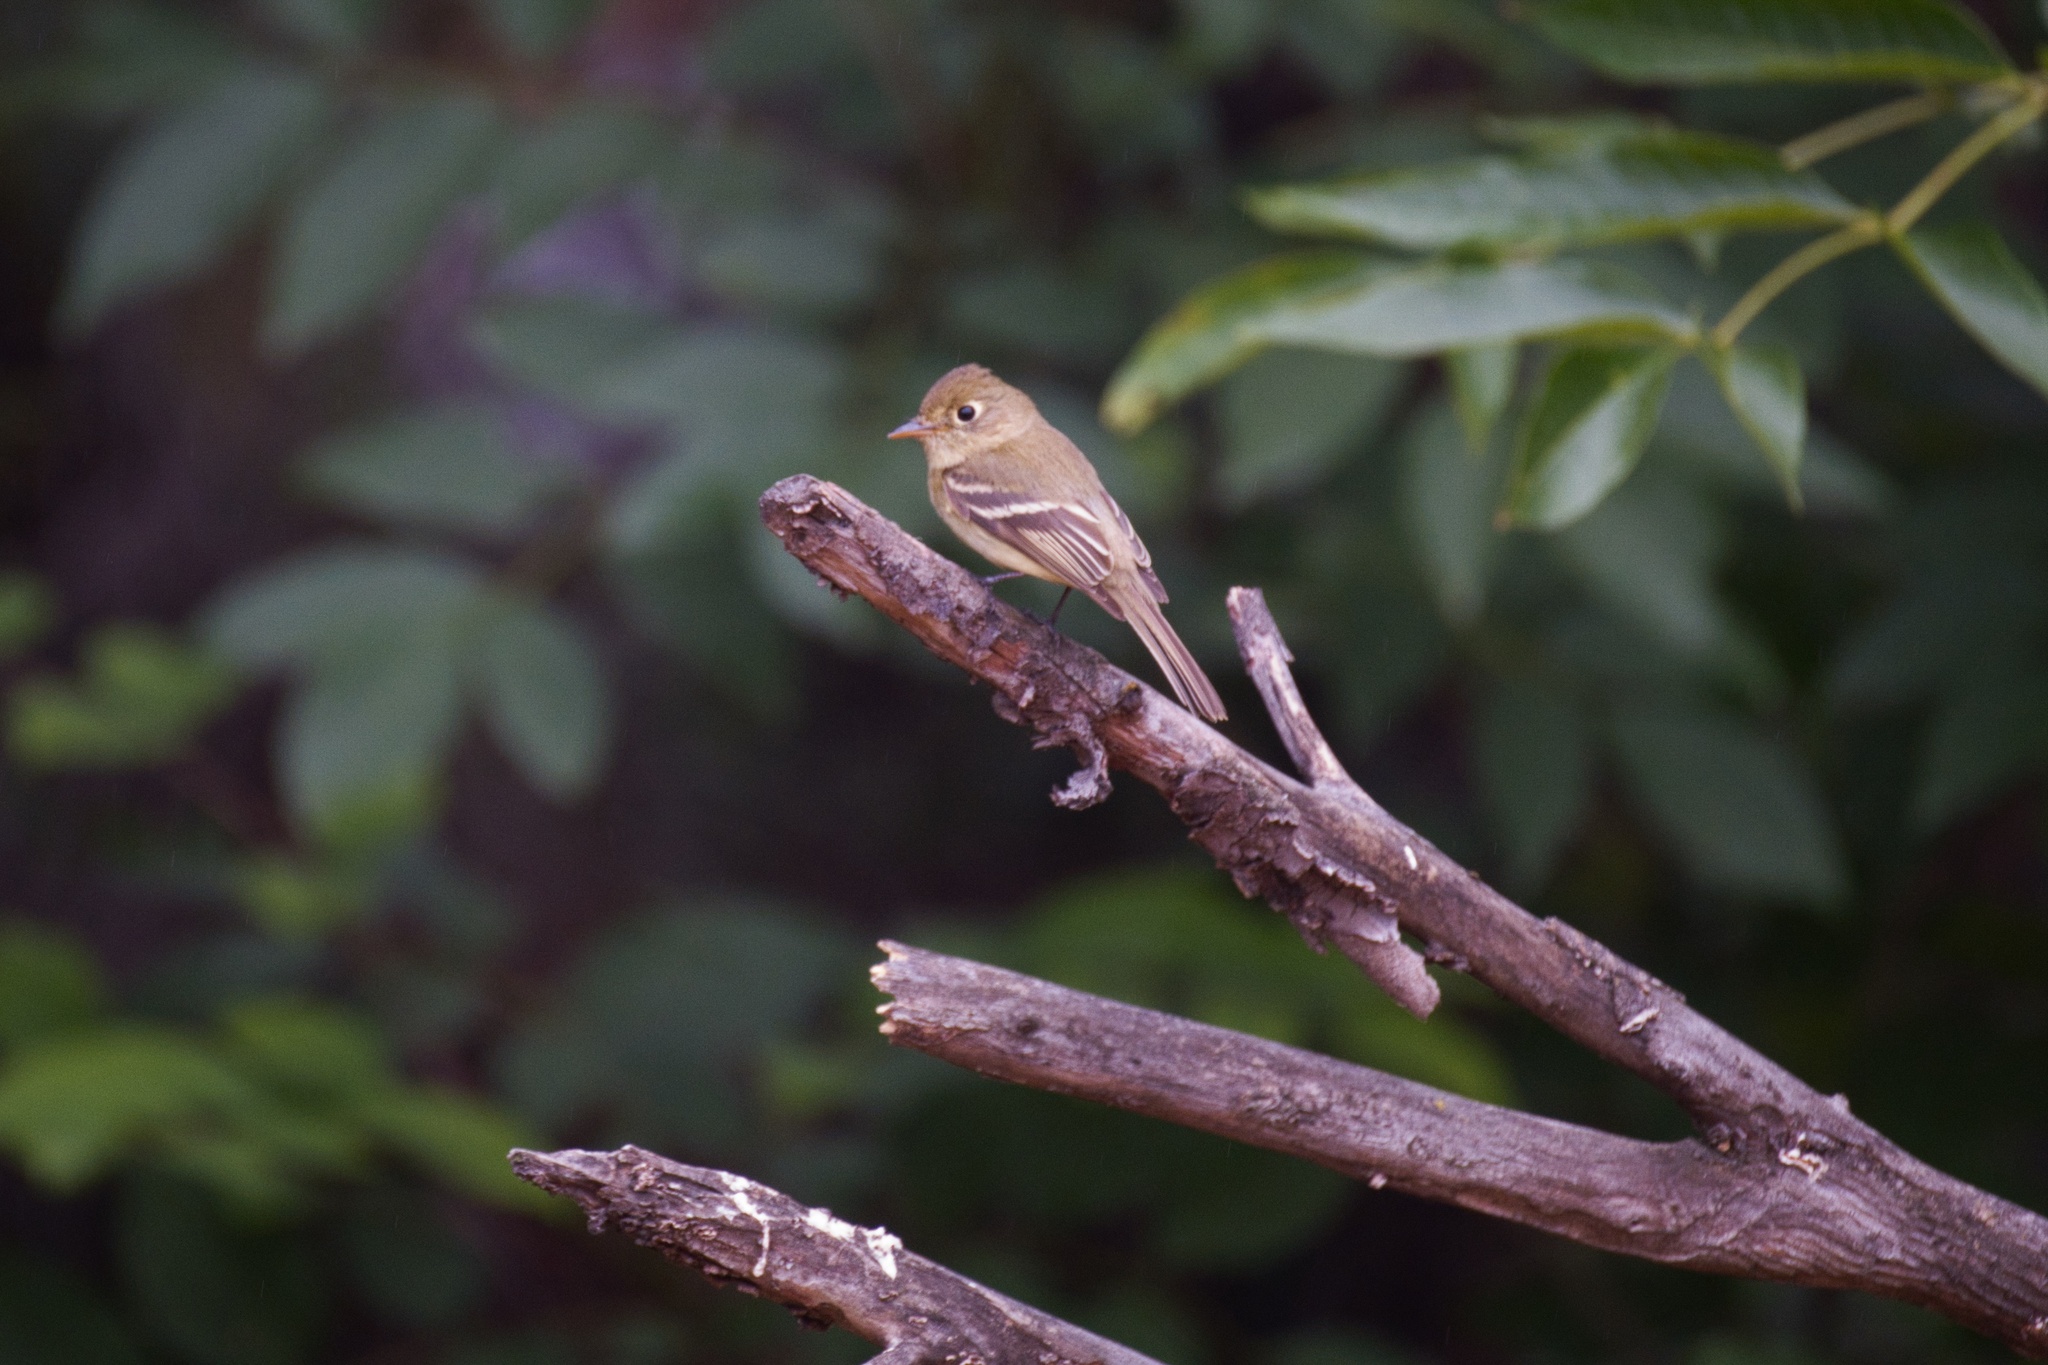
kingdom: Animalia
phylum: Chordata
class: Aves
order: Passeriformes
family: Tyrannidae
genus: Empidonax
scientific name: Empidonax difficilis
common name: Pacific-slope flycatcher
